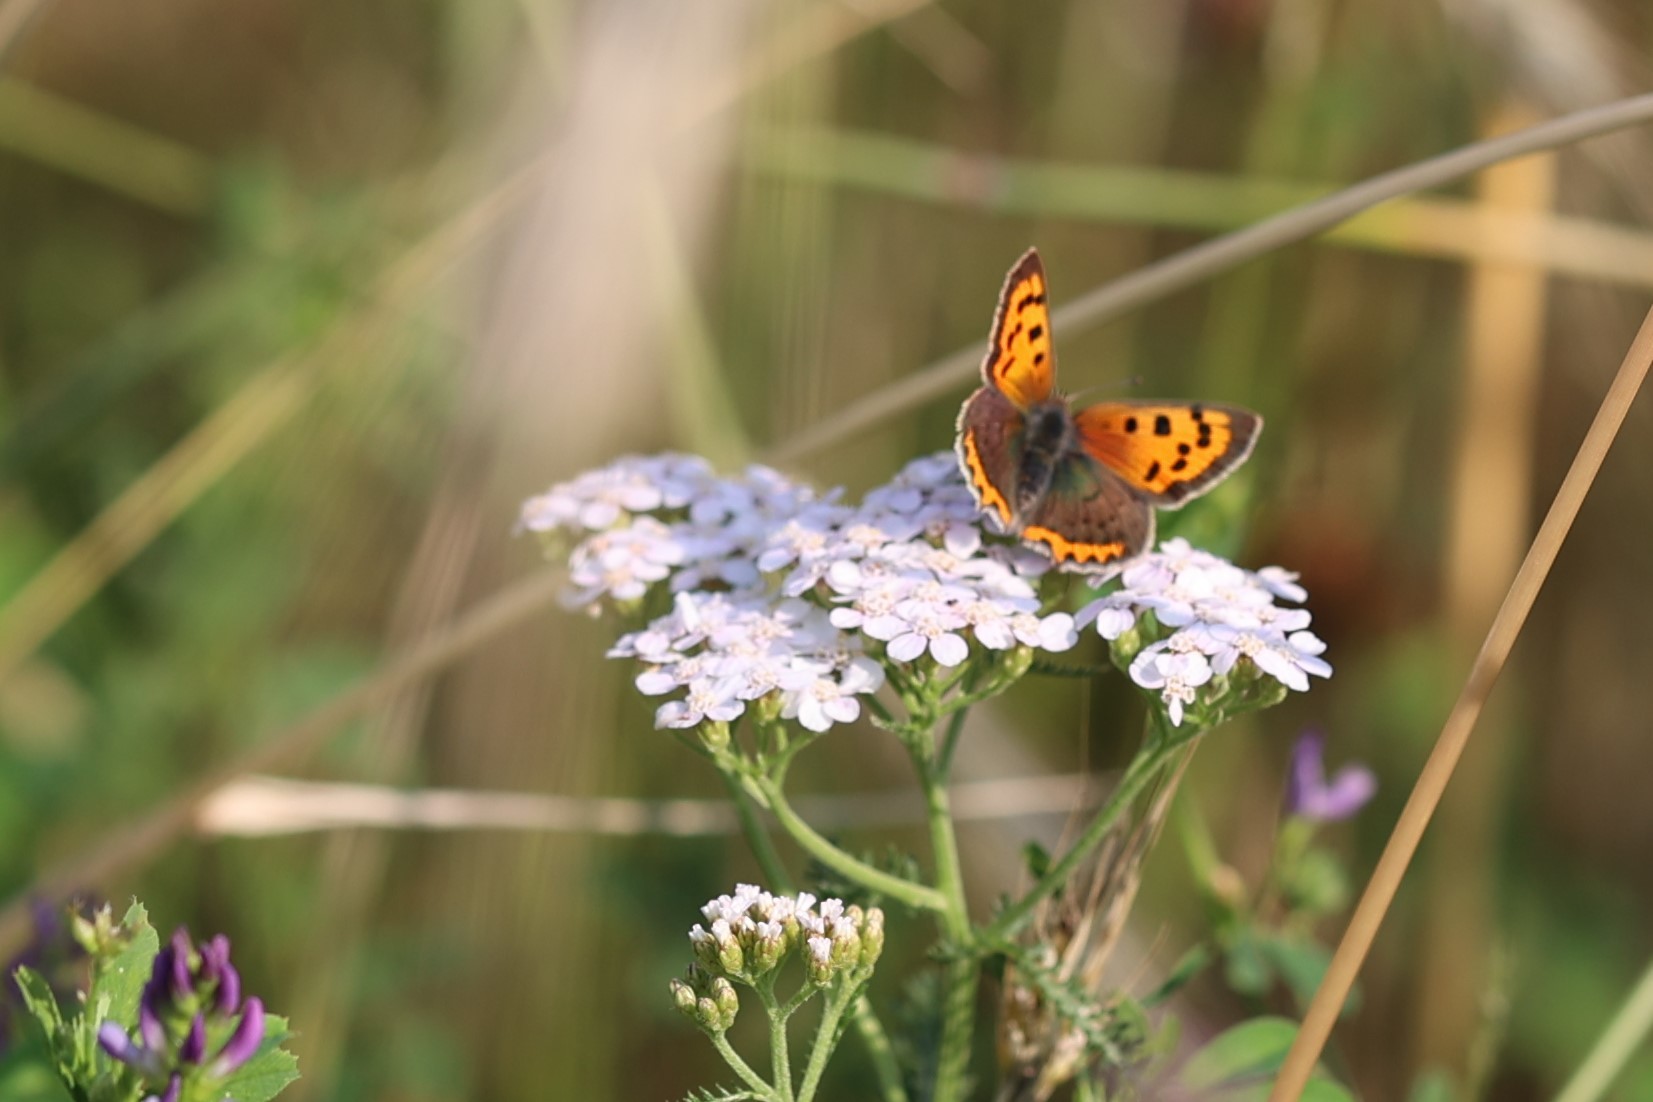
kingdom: Animalia
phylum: Arthropoda
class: Insecta
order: Lepidoptera
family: Lycaenidae
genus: Lycaena
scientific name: Lycaena phlaeas
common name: Small copper
